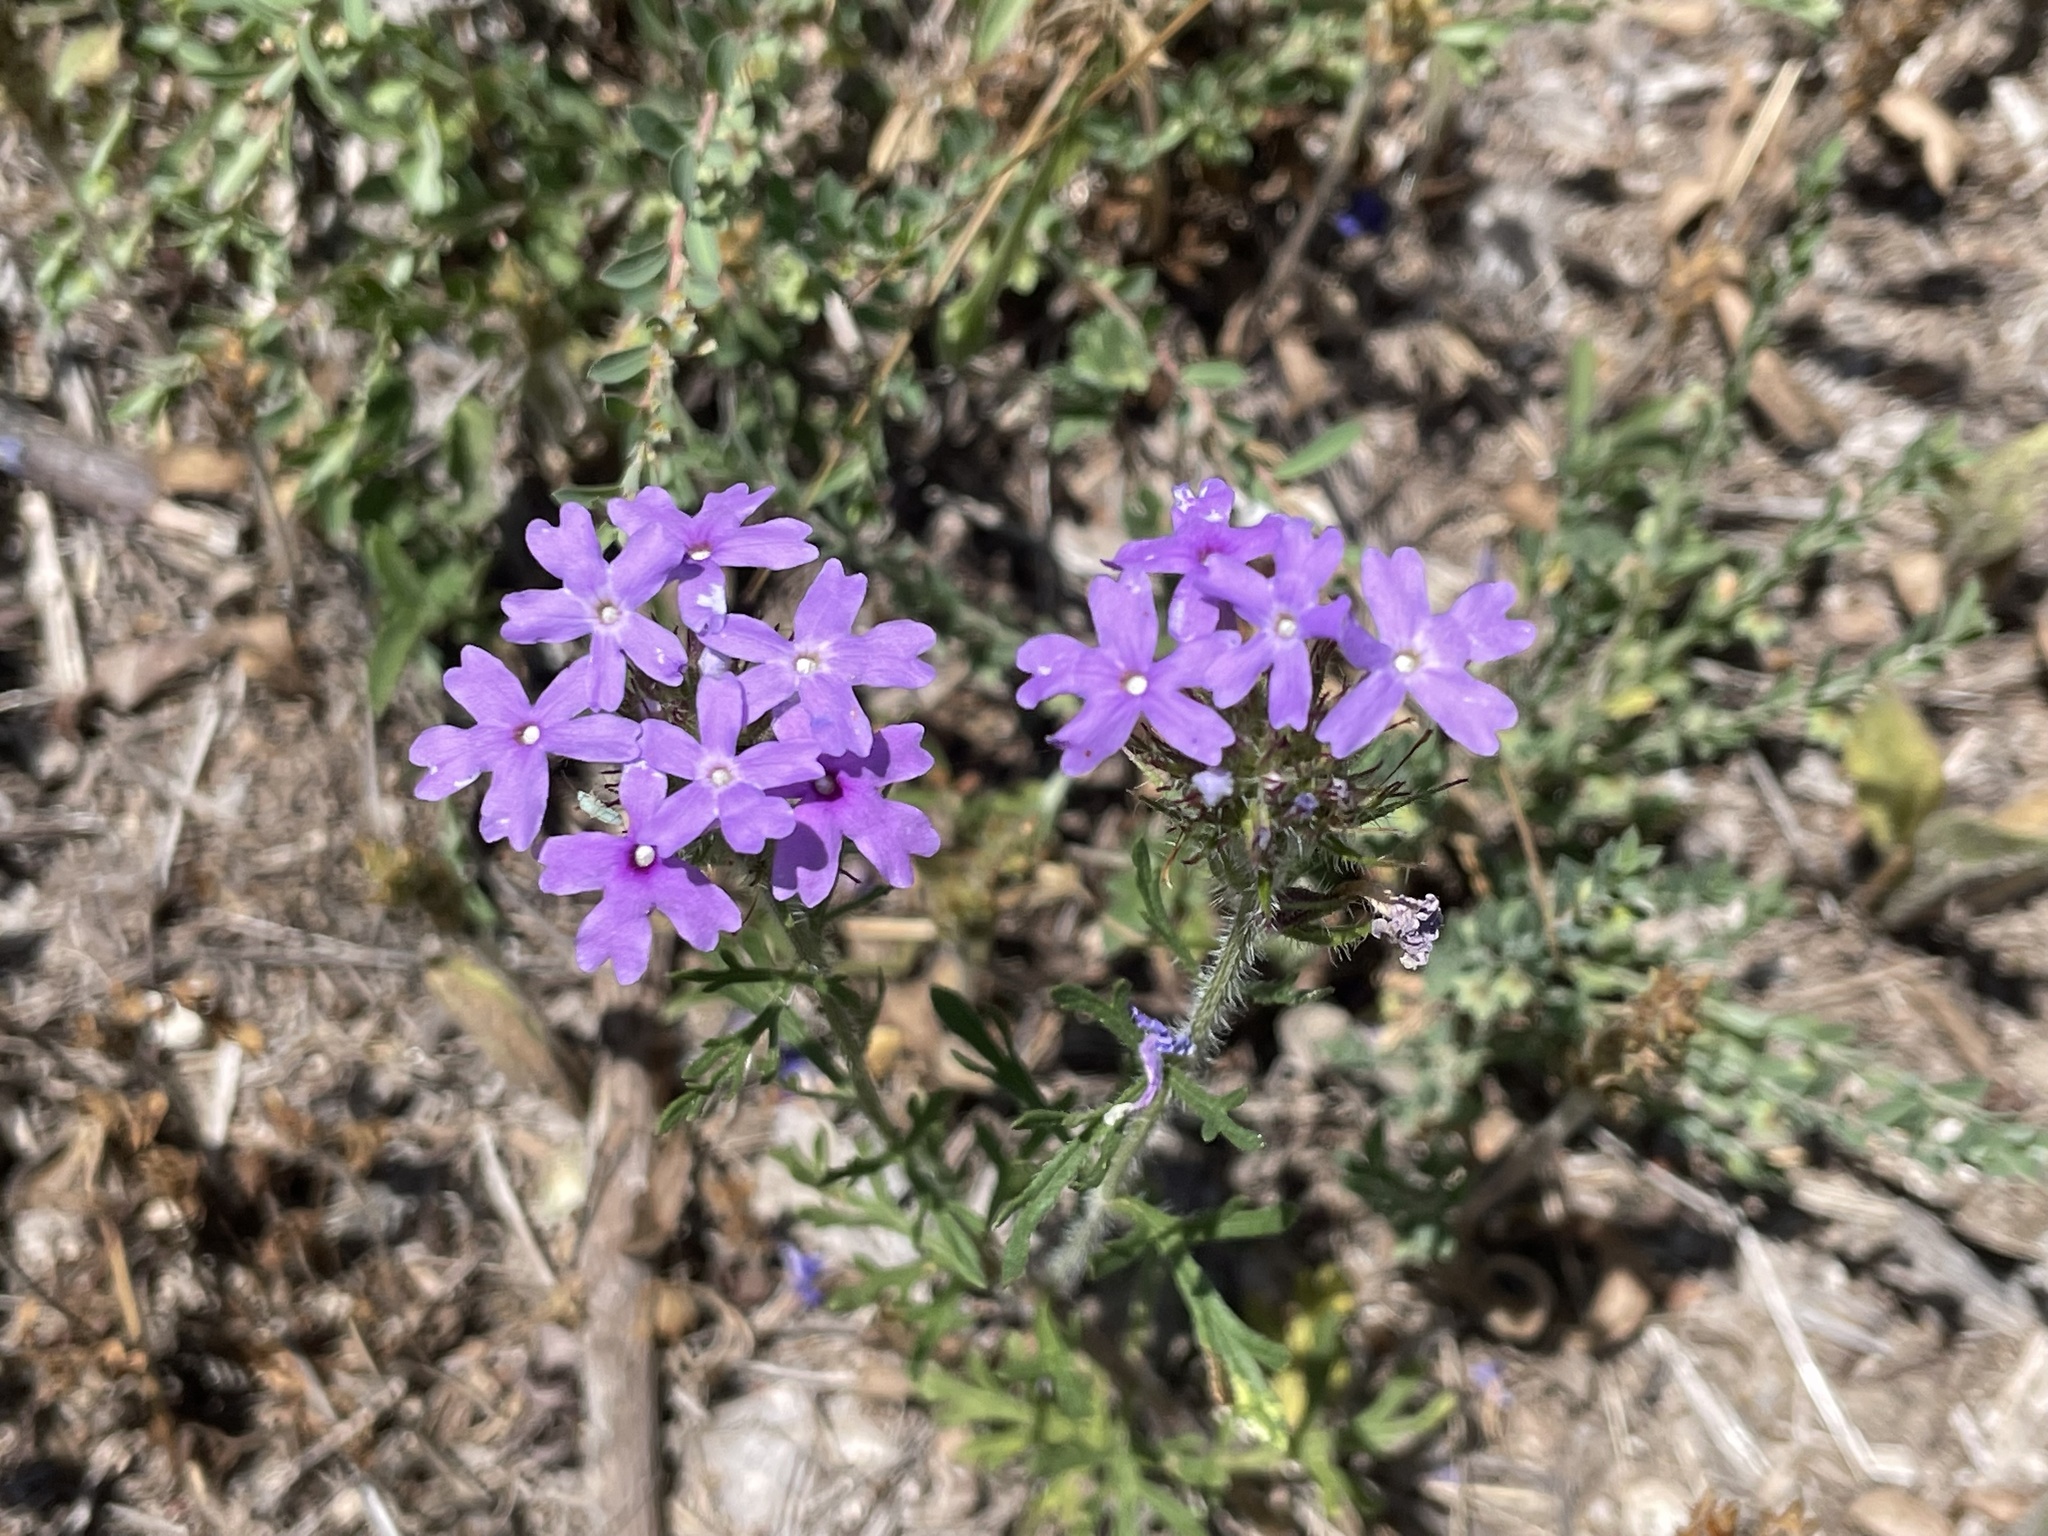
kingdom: Plantae
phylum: Tracheophyta
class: Magnoliopsida
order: Lamiales
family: Verbenaceae
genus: Verbena
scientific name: Verbena bipinnatifida
